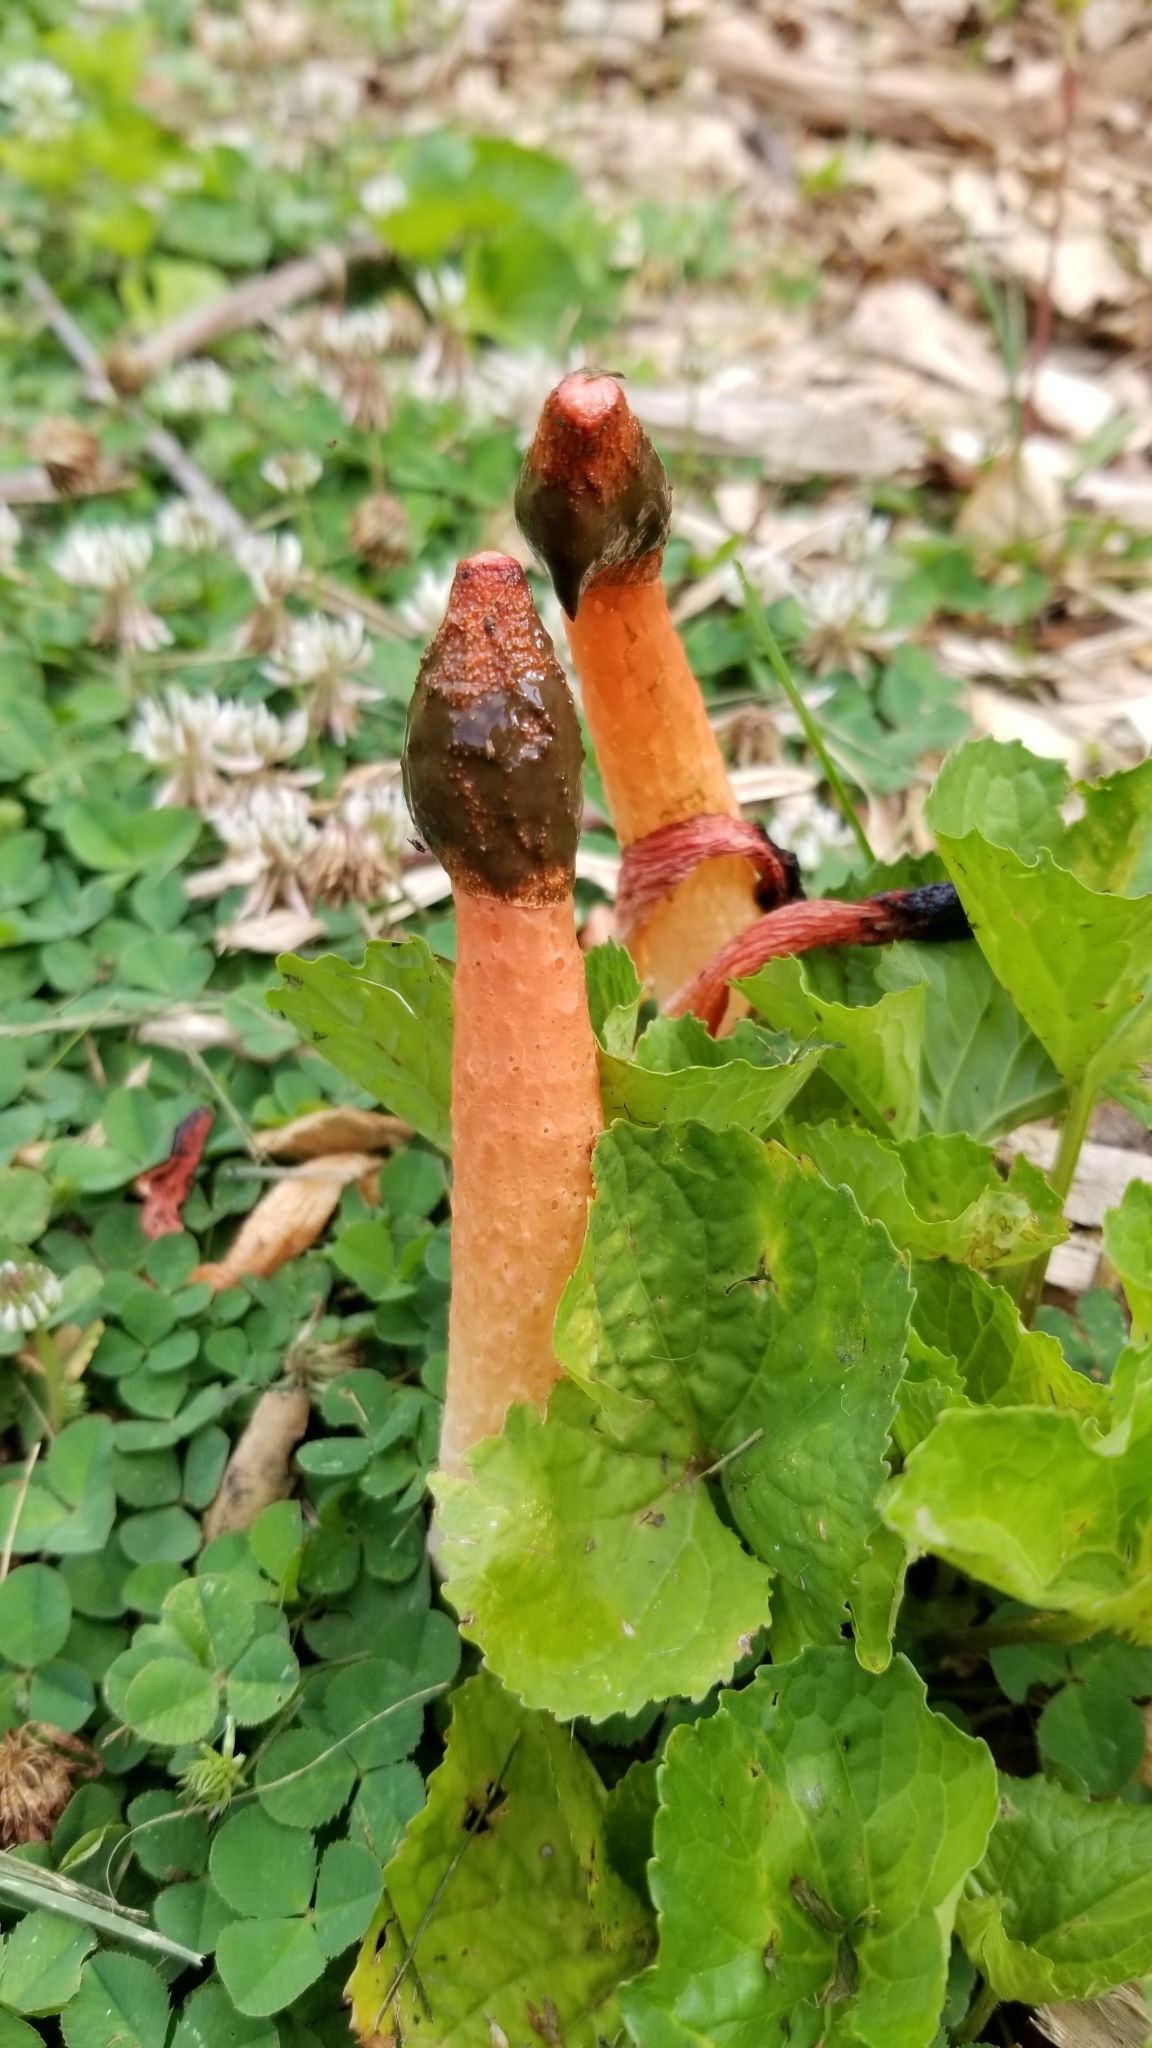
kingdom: Fungi
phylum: Basidiomycota
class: Agaricomycetes
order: Phallales
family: Phallaceae
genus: Phallus
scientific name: Phallus rugulosus
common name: Wrinkly stinkhorn
